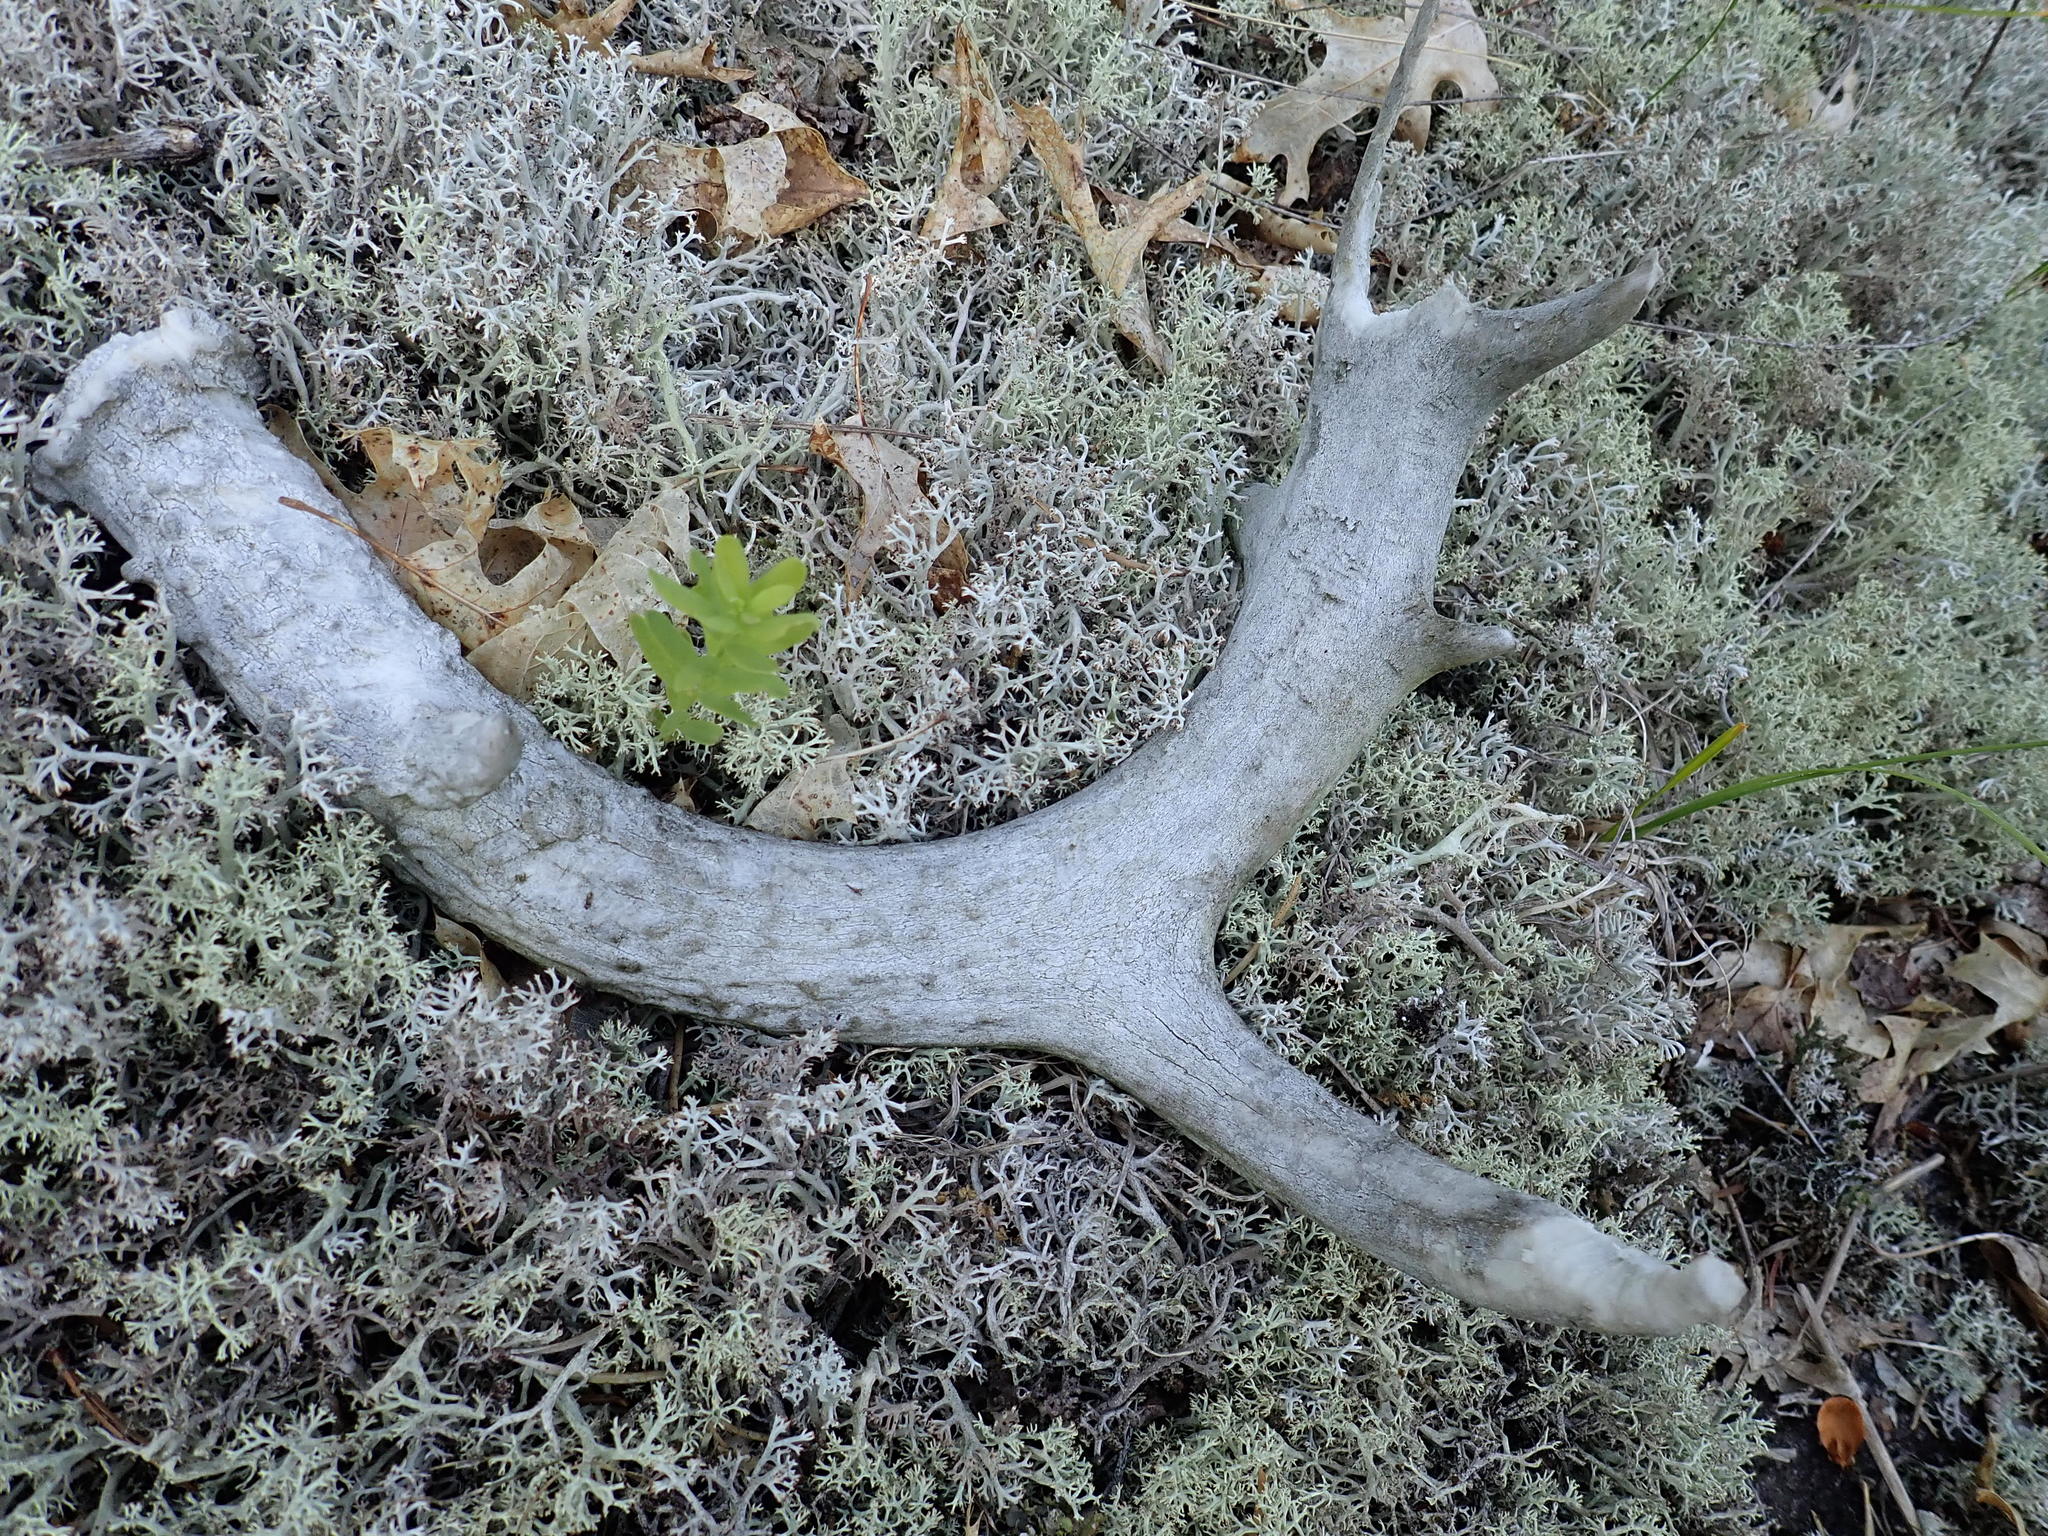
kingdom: Animalia
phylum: Chordata
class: Mammalia
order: Artiodactyla
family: Cervidae
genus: Odocoileus
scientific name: Odocoileus virginianus
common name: White-tailed deer
